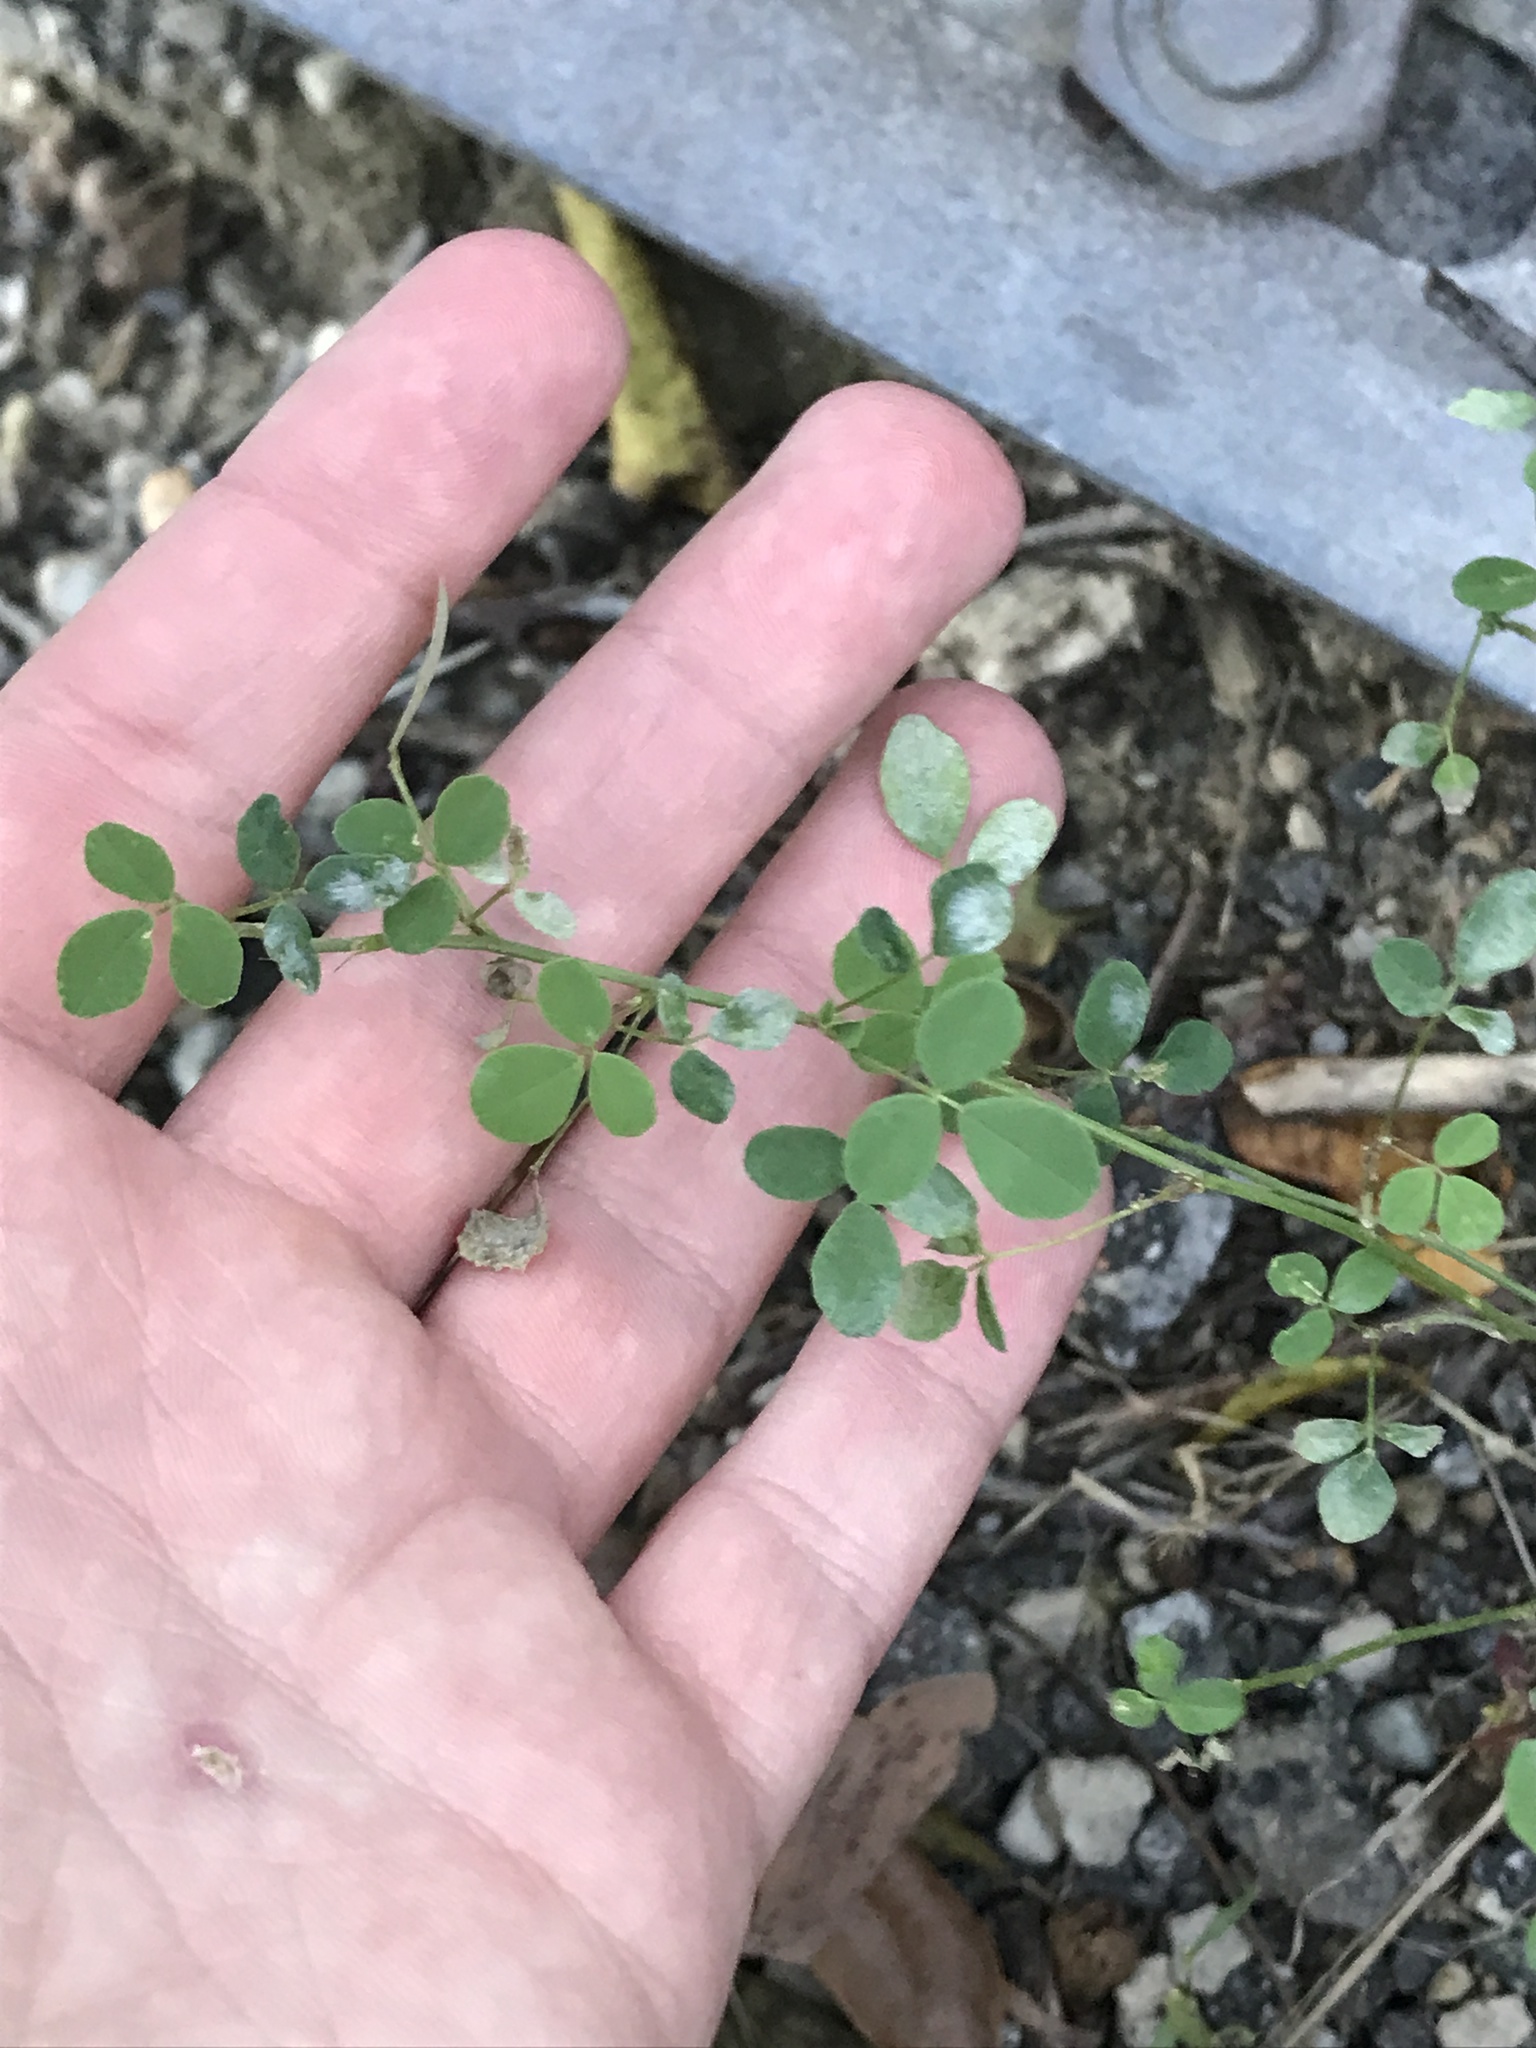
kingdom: Plantae
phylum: Tracheophyta
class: Magnoliopsida
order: Fabales
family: Fabaceae
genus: Medicago
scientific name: Medicago lupulina
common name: Black medick
